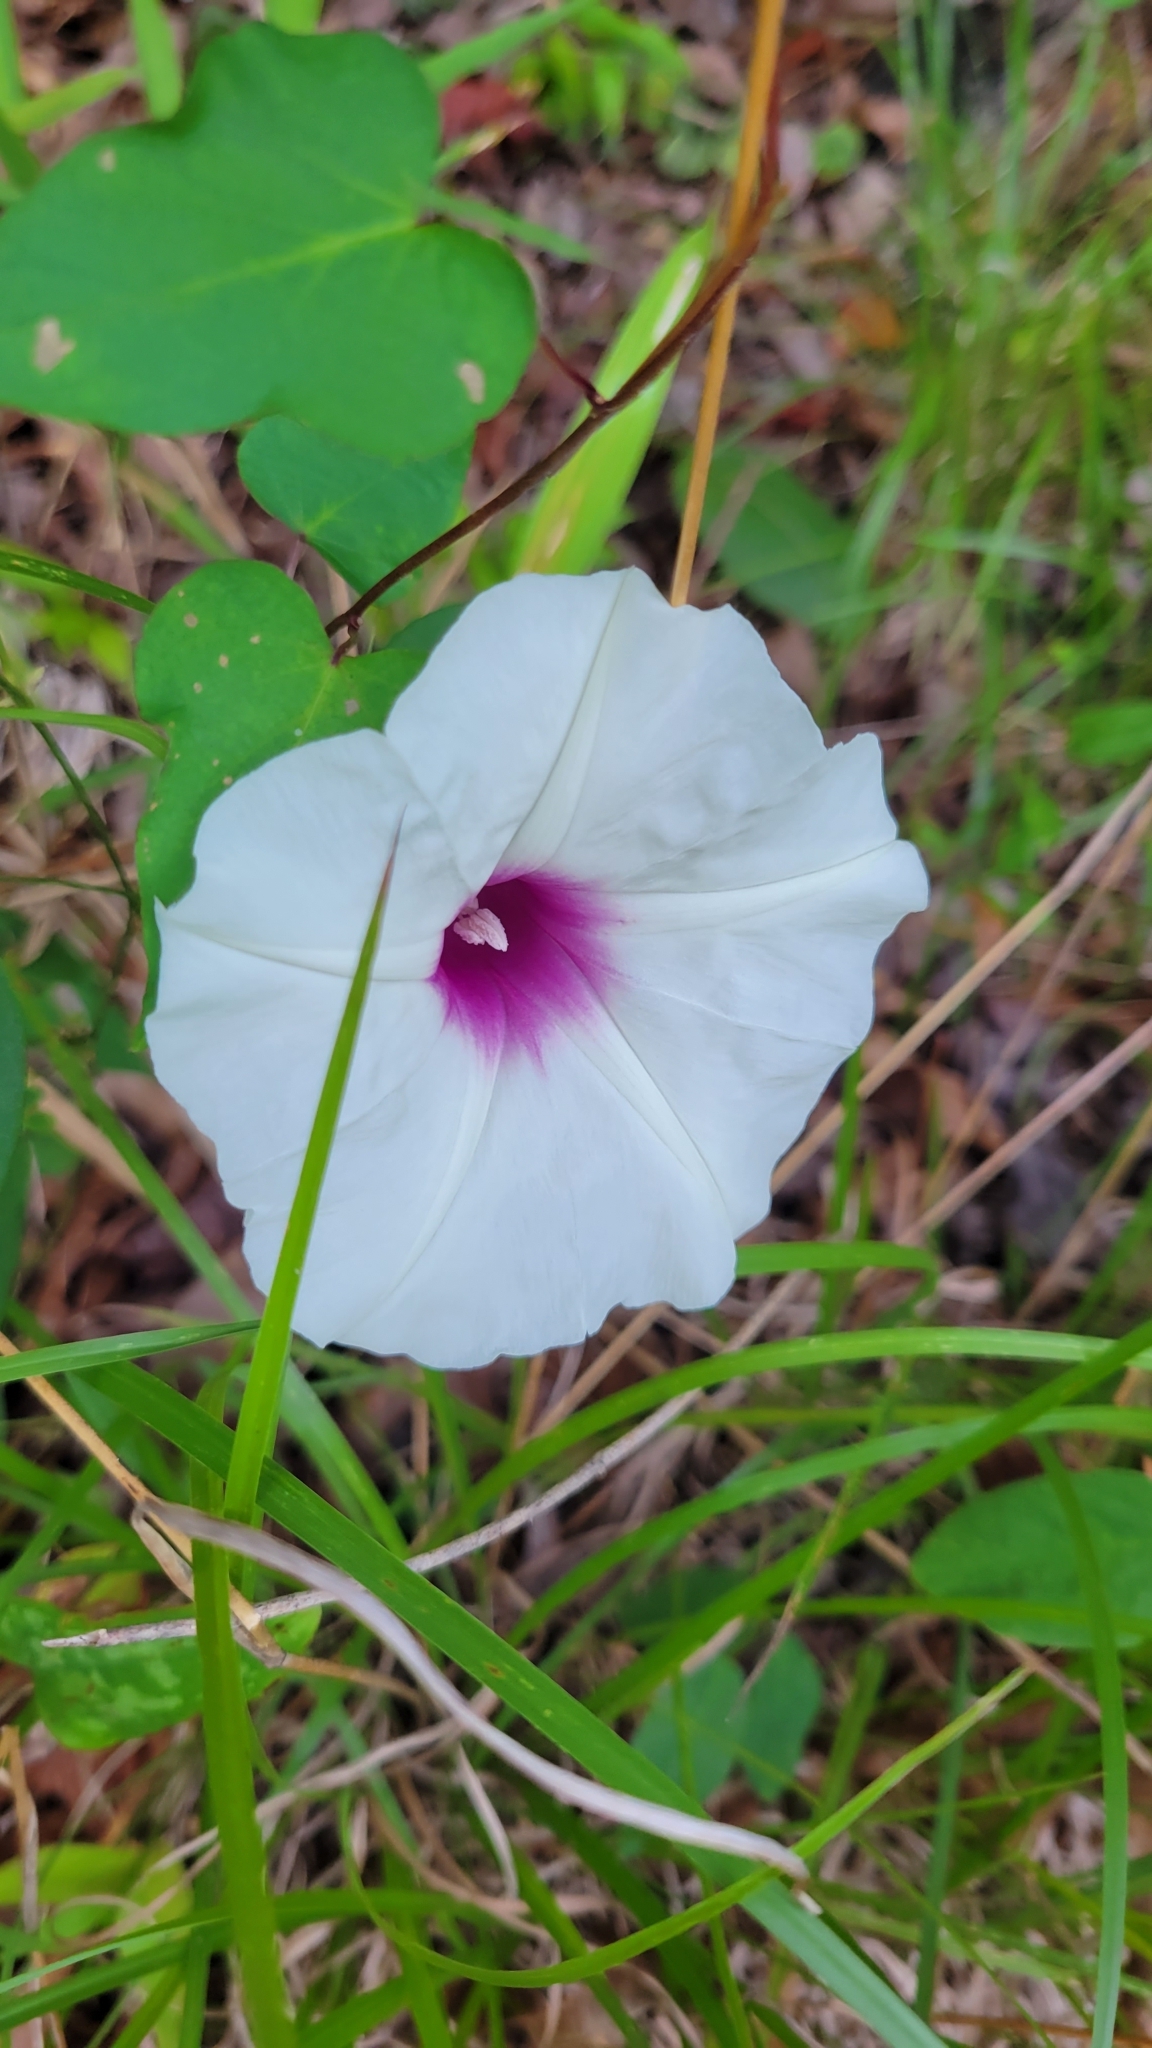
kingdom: Plantae
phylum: Tracheophyta
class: Magnoliopsida
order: Solanales
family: Convolvulaceae
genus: Ipomoea
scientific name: Ipomoea pandurata
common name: Man-of-the-earth
